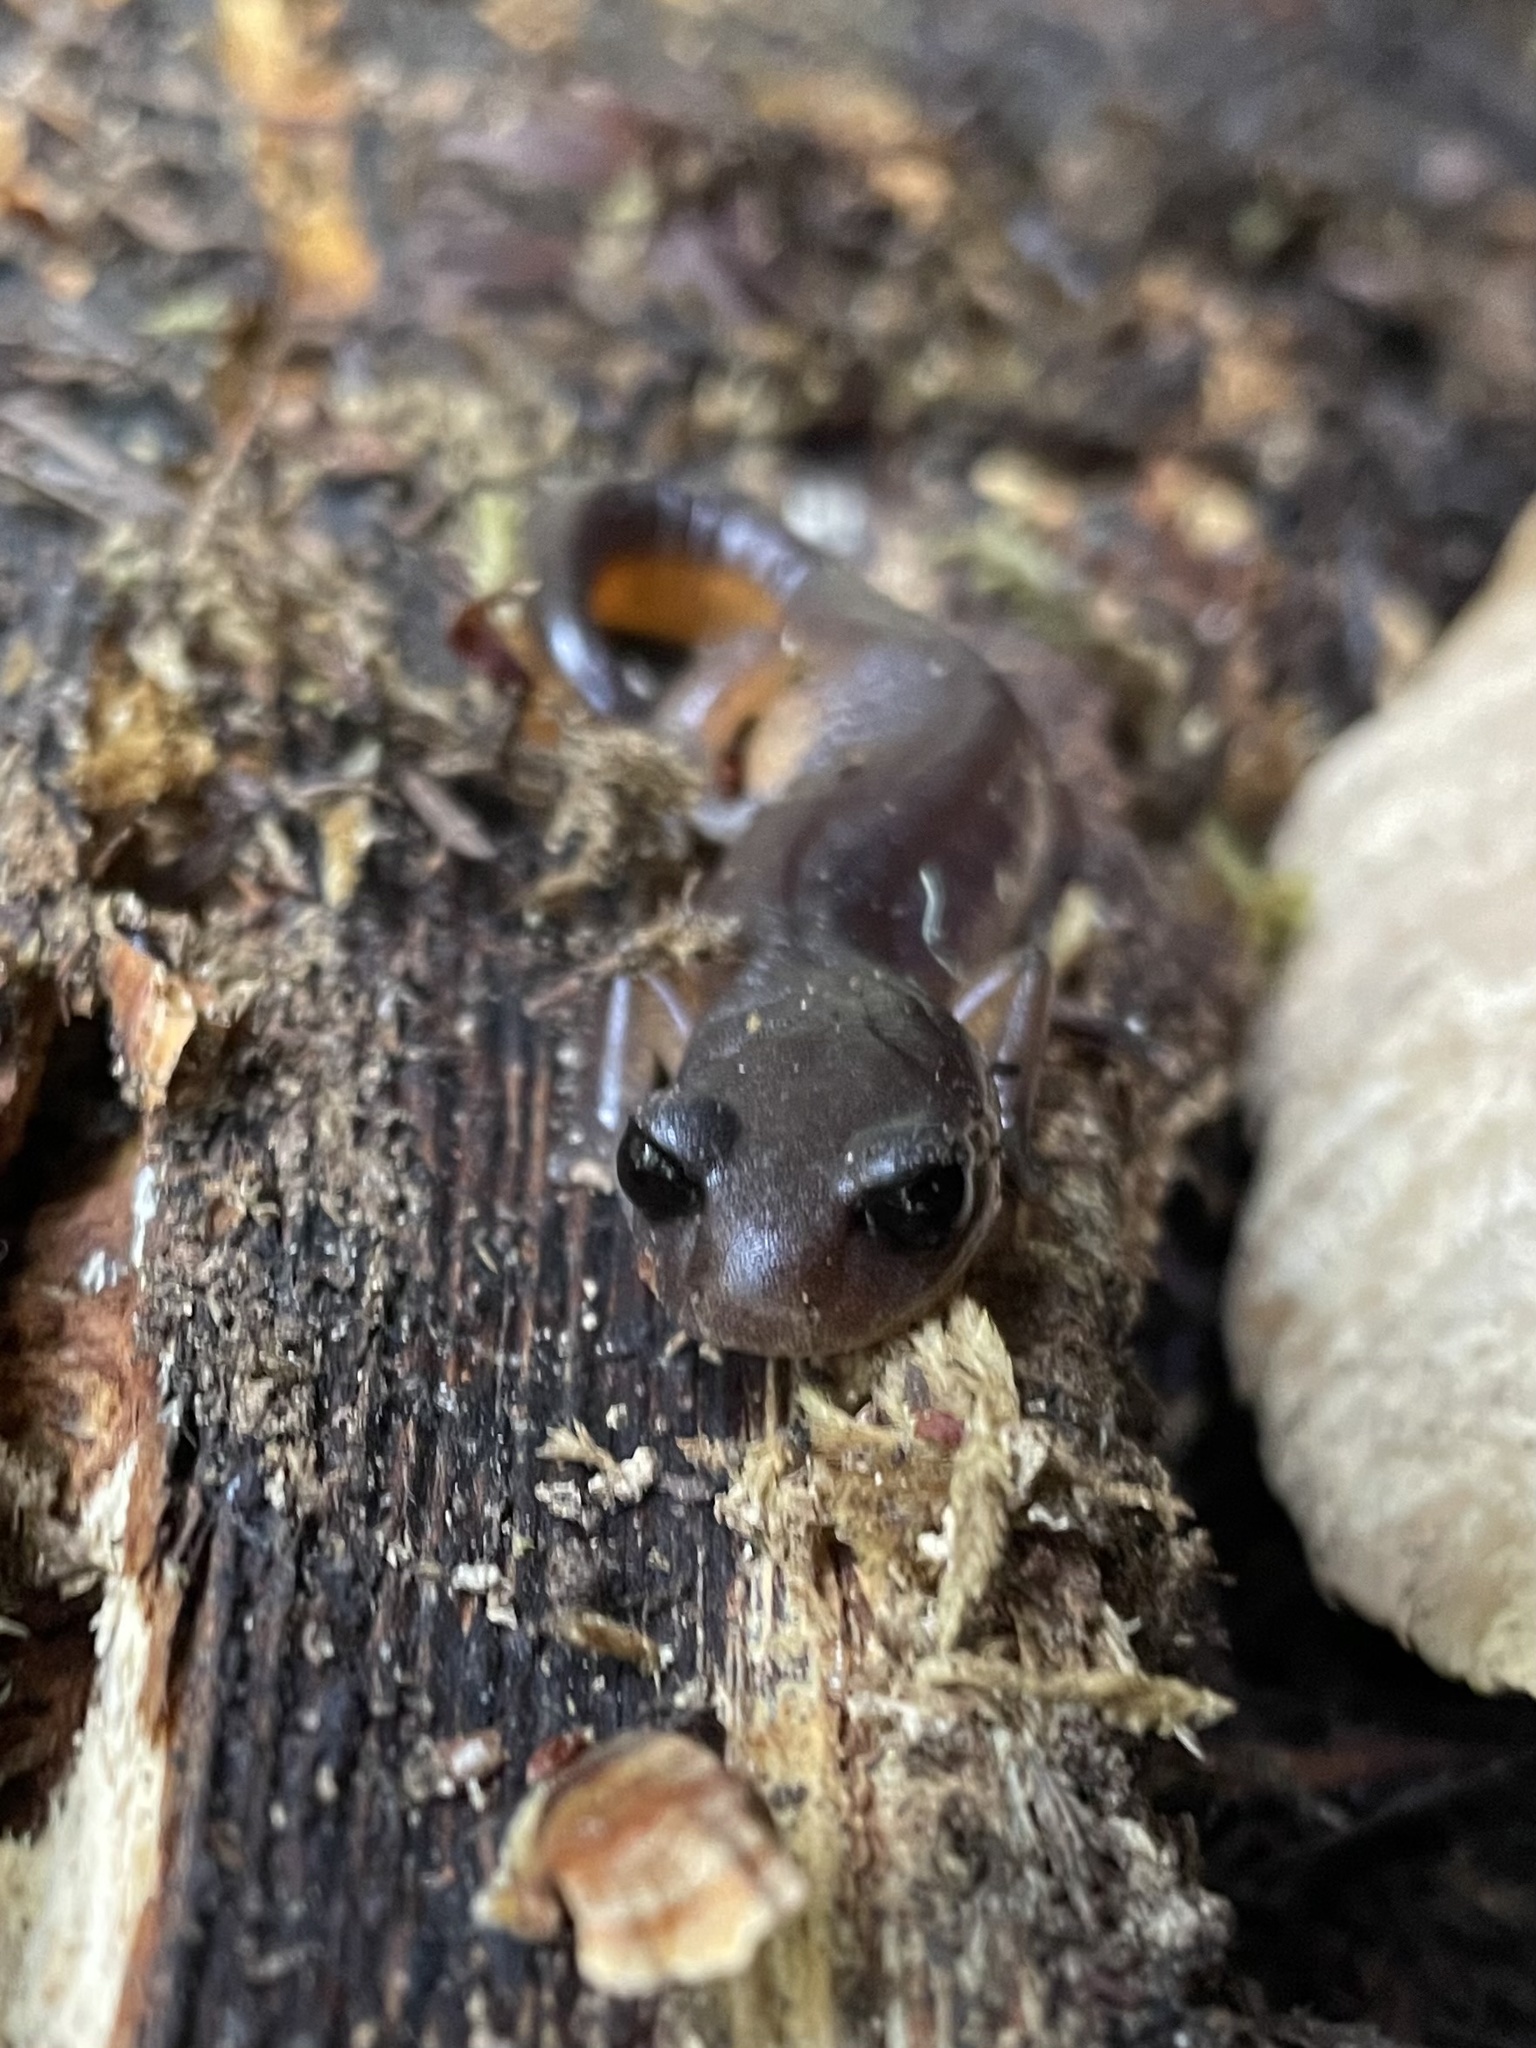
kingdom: Animalia
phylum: Chordata
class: Amphibia
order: Caudata
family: Plethodontidae
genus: Ensatina
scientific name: Ensatina eschscholtzii
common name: Ensatina
